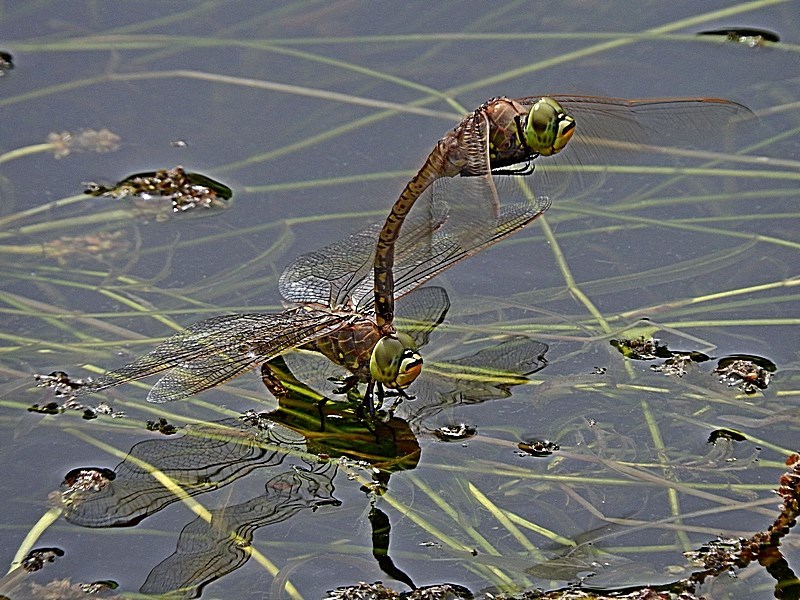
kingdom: Animalia
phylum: Arthropoda
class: Insecta
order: Odonata
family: Aeshnidae
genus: Anax
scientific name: Anax papuensis
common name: Australian emperor
